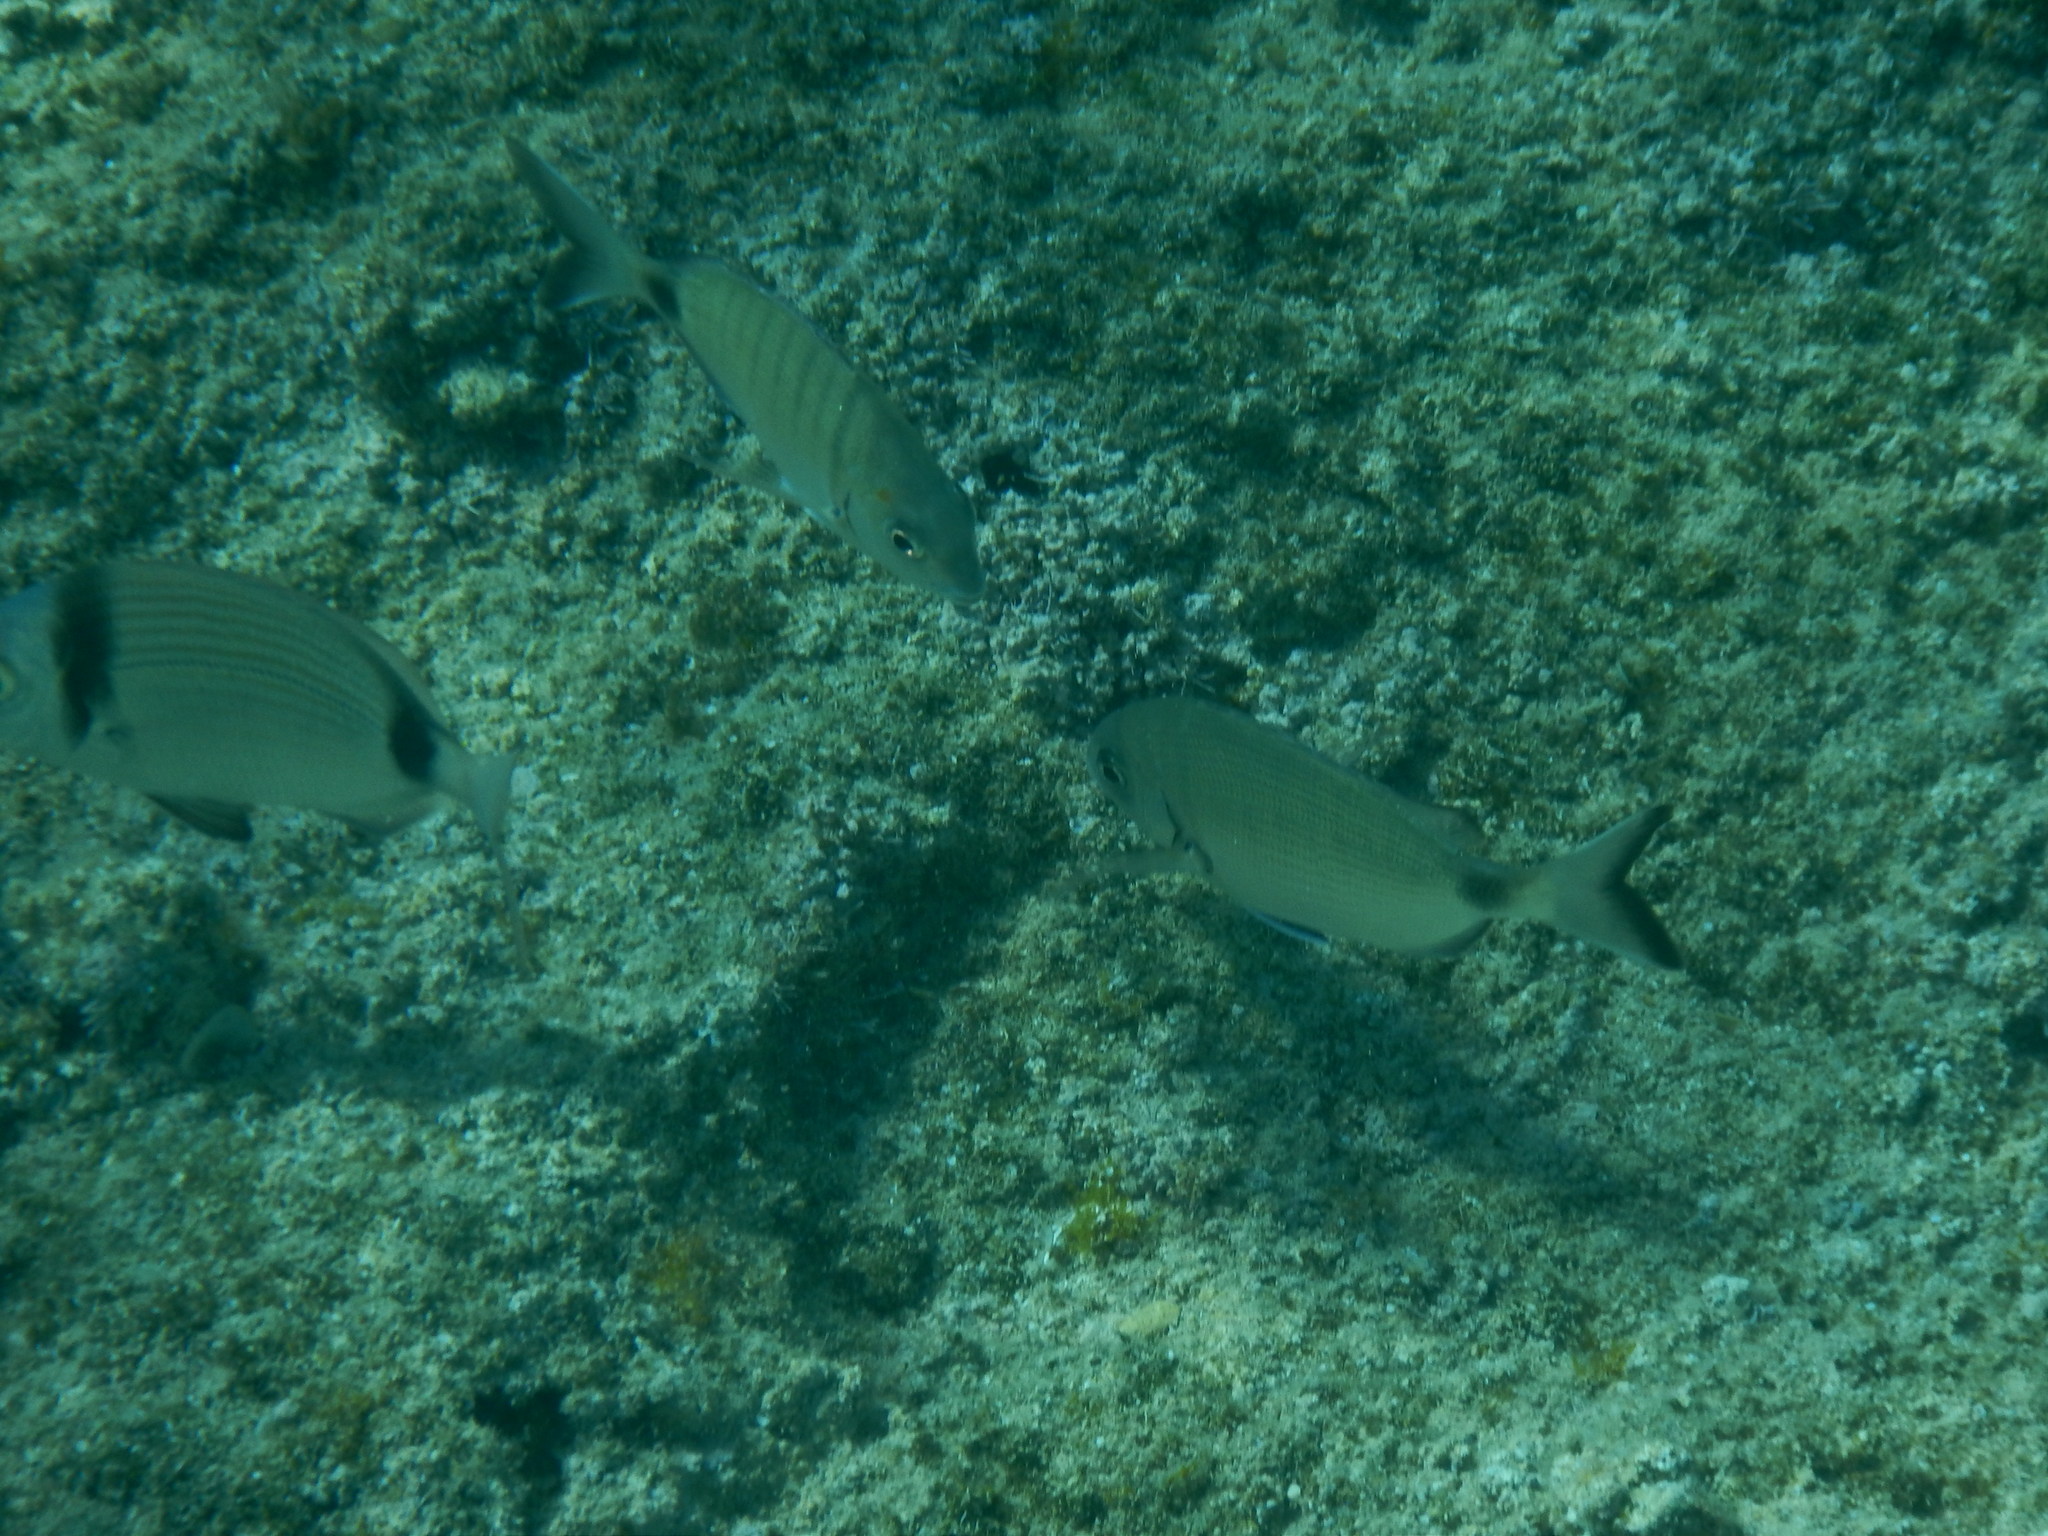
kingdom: Animalia
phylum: Chordata
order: Perciformes
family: Sparidae
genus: Diplodus
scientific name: Diplodus sargus
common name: White seabream
